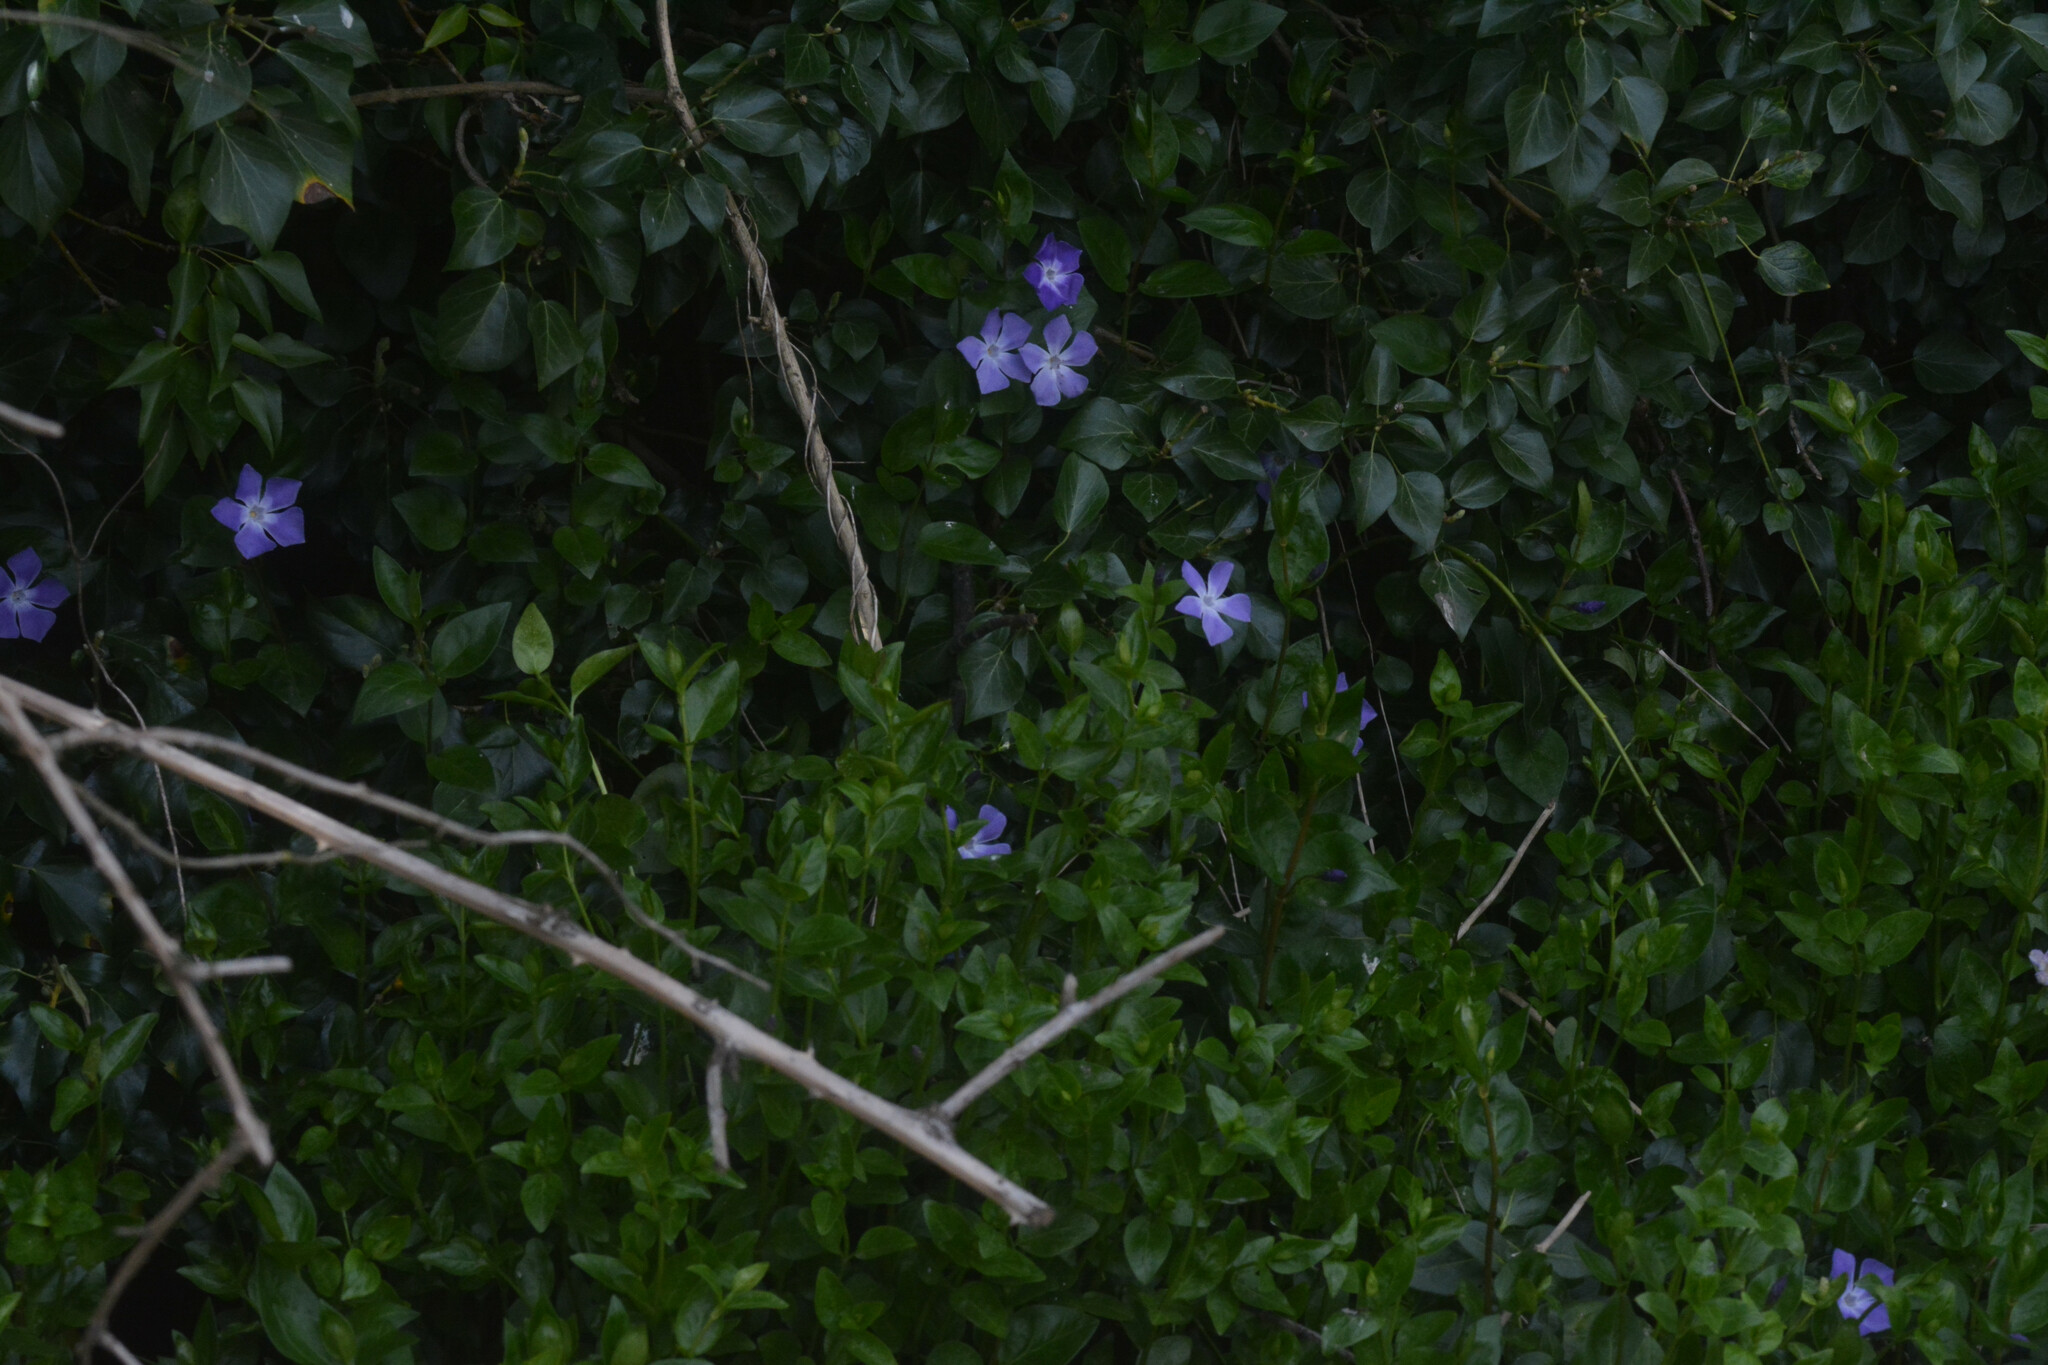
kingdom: Plantae
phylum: Tracheophyta
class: Magnoliopsida
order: Gentianales
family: Apocynaceae
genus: Vinca
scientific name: Vinca major
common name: Greater periwinkle
